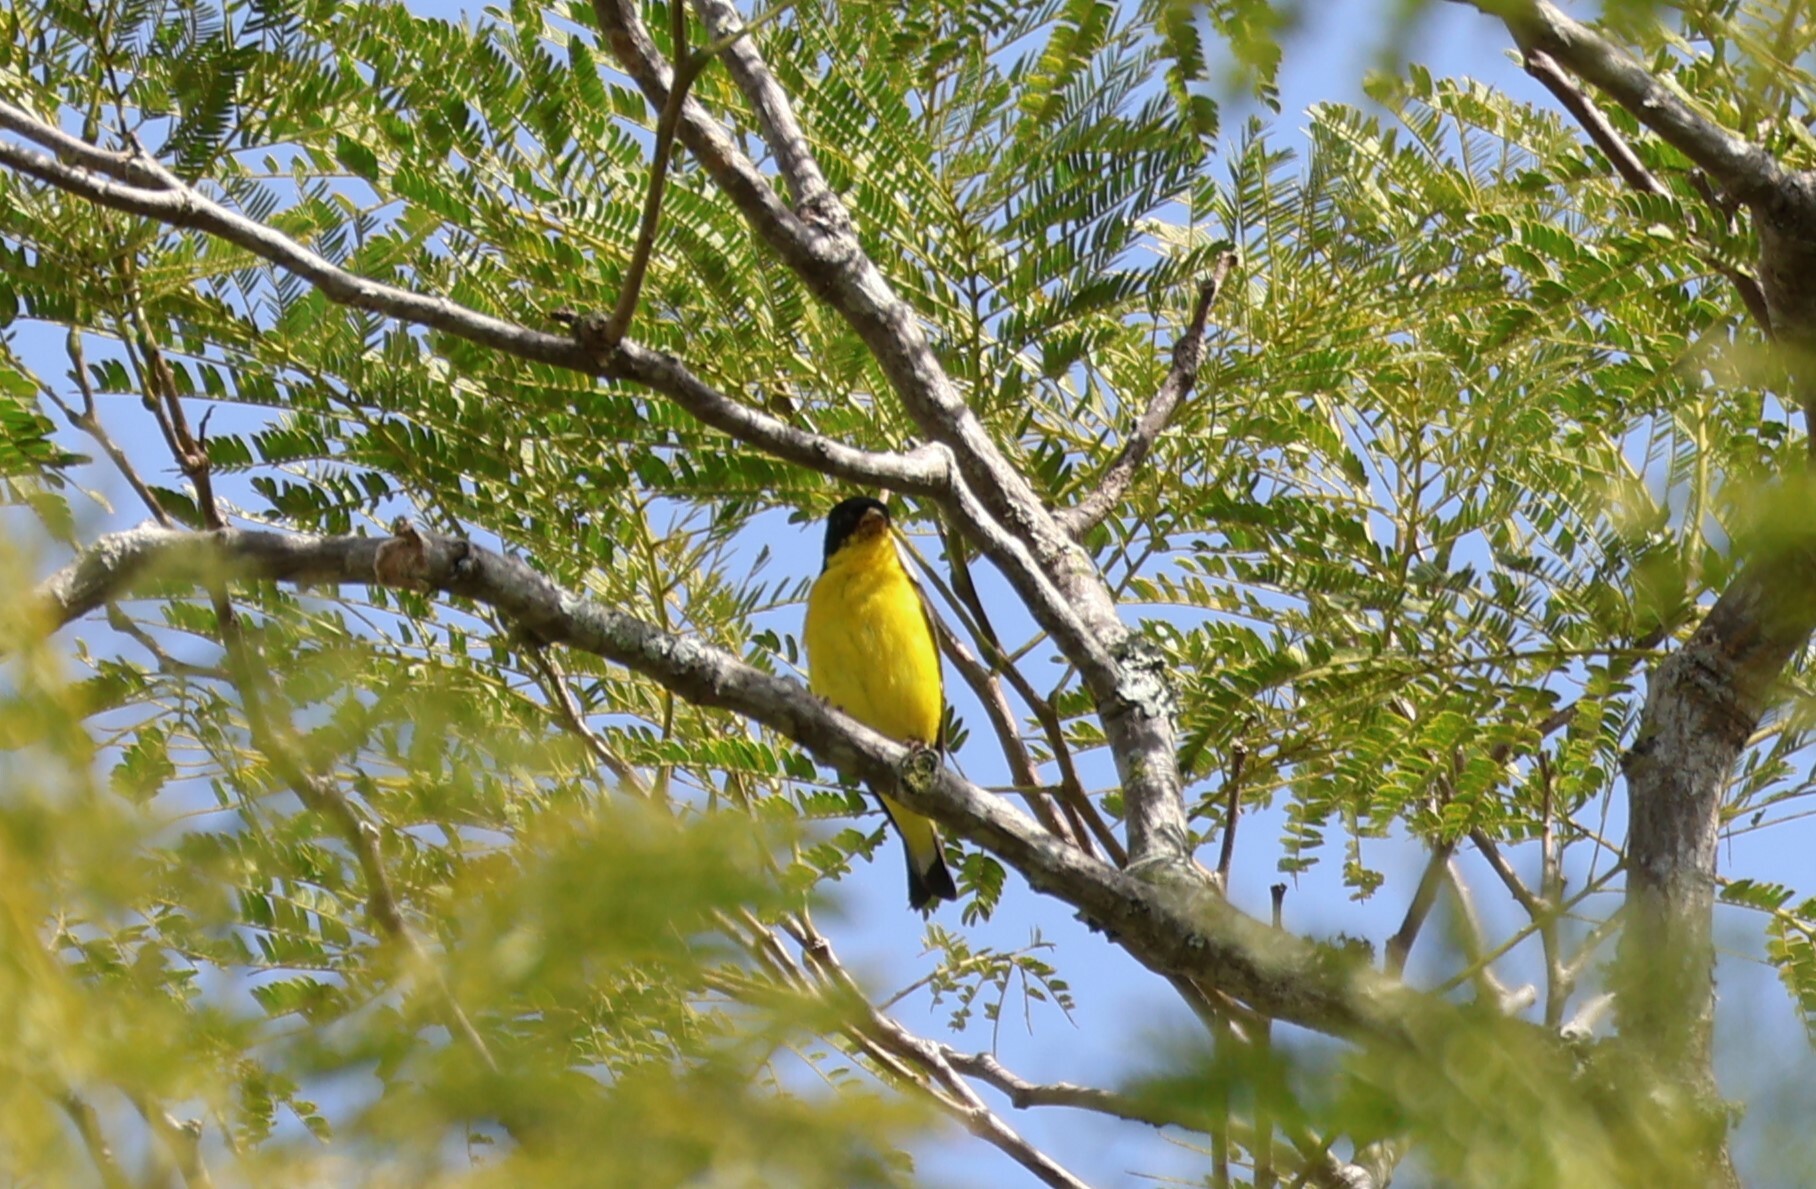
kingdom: Animalia
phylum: Chordata
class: Aves
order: Passeriformes
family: Fringillidae
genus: Spinus
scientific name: Spinus psaltria
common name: Lesser goldfinch
